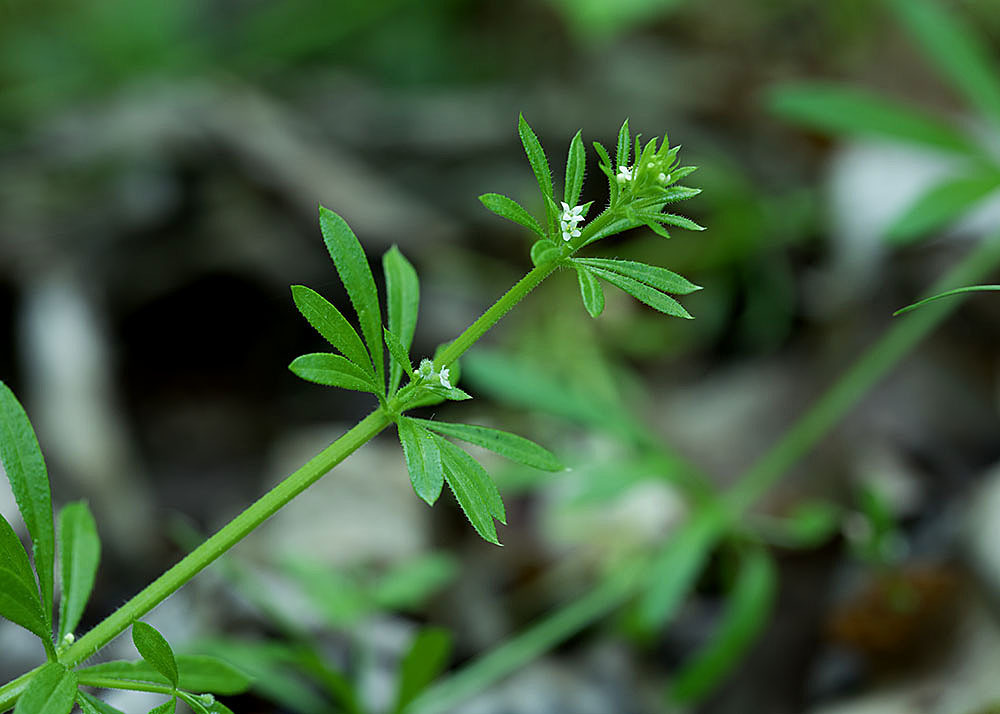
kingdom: Plantae
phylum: Tracheophyta
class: Magnoliopsida
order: Gentianales
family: Rubiaceae
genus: Galium
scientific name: Galium aparine
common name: Cleavers
